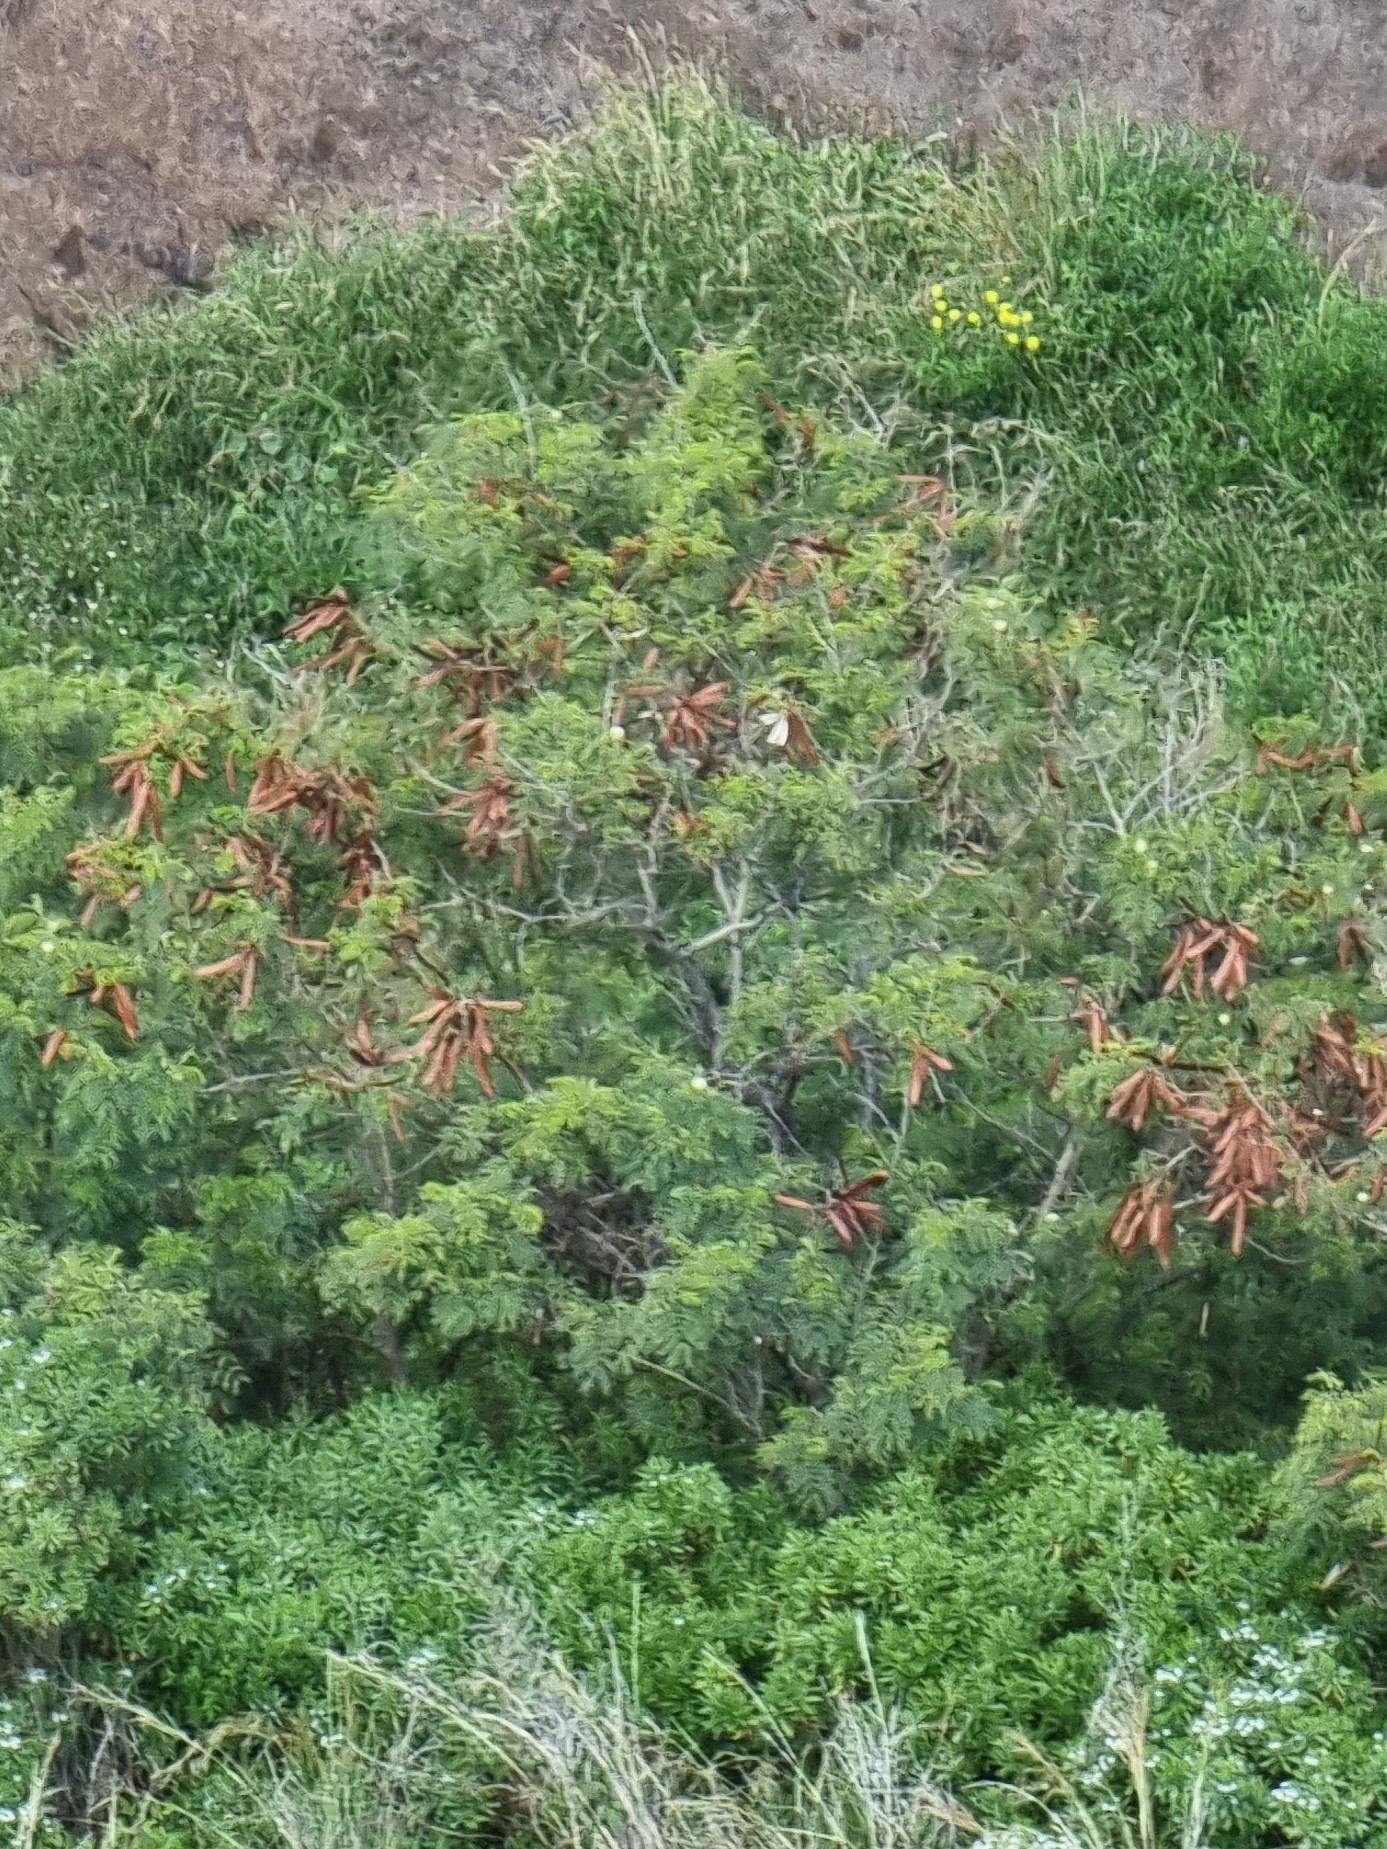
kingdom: Plantae
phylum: Tracheophyta
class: Magnoliopsida
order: Fabales
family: Fabaceae
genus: Leucaena
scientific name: Leucaena leucocephala
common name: White leadtree
